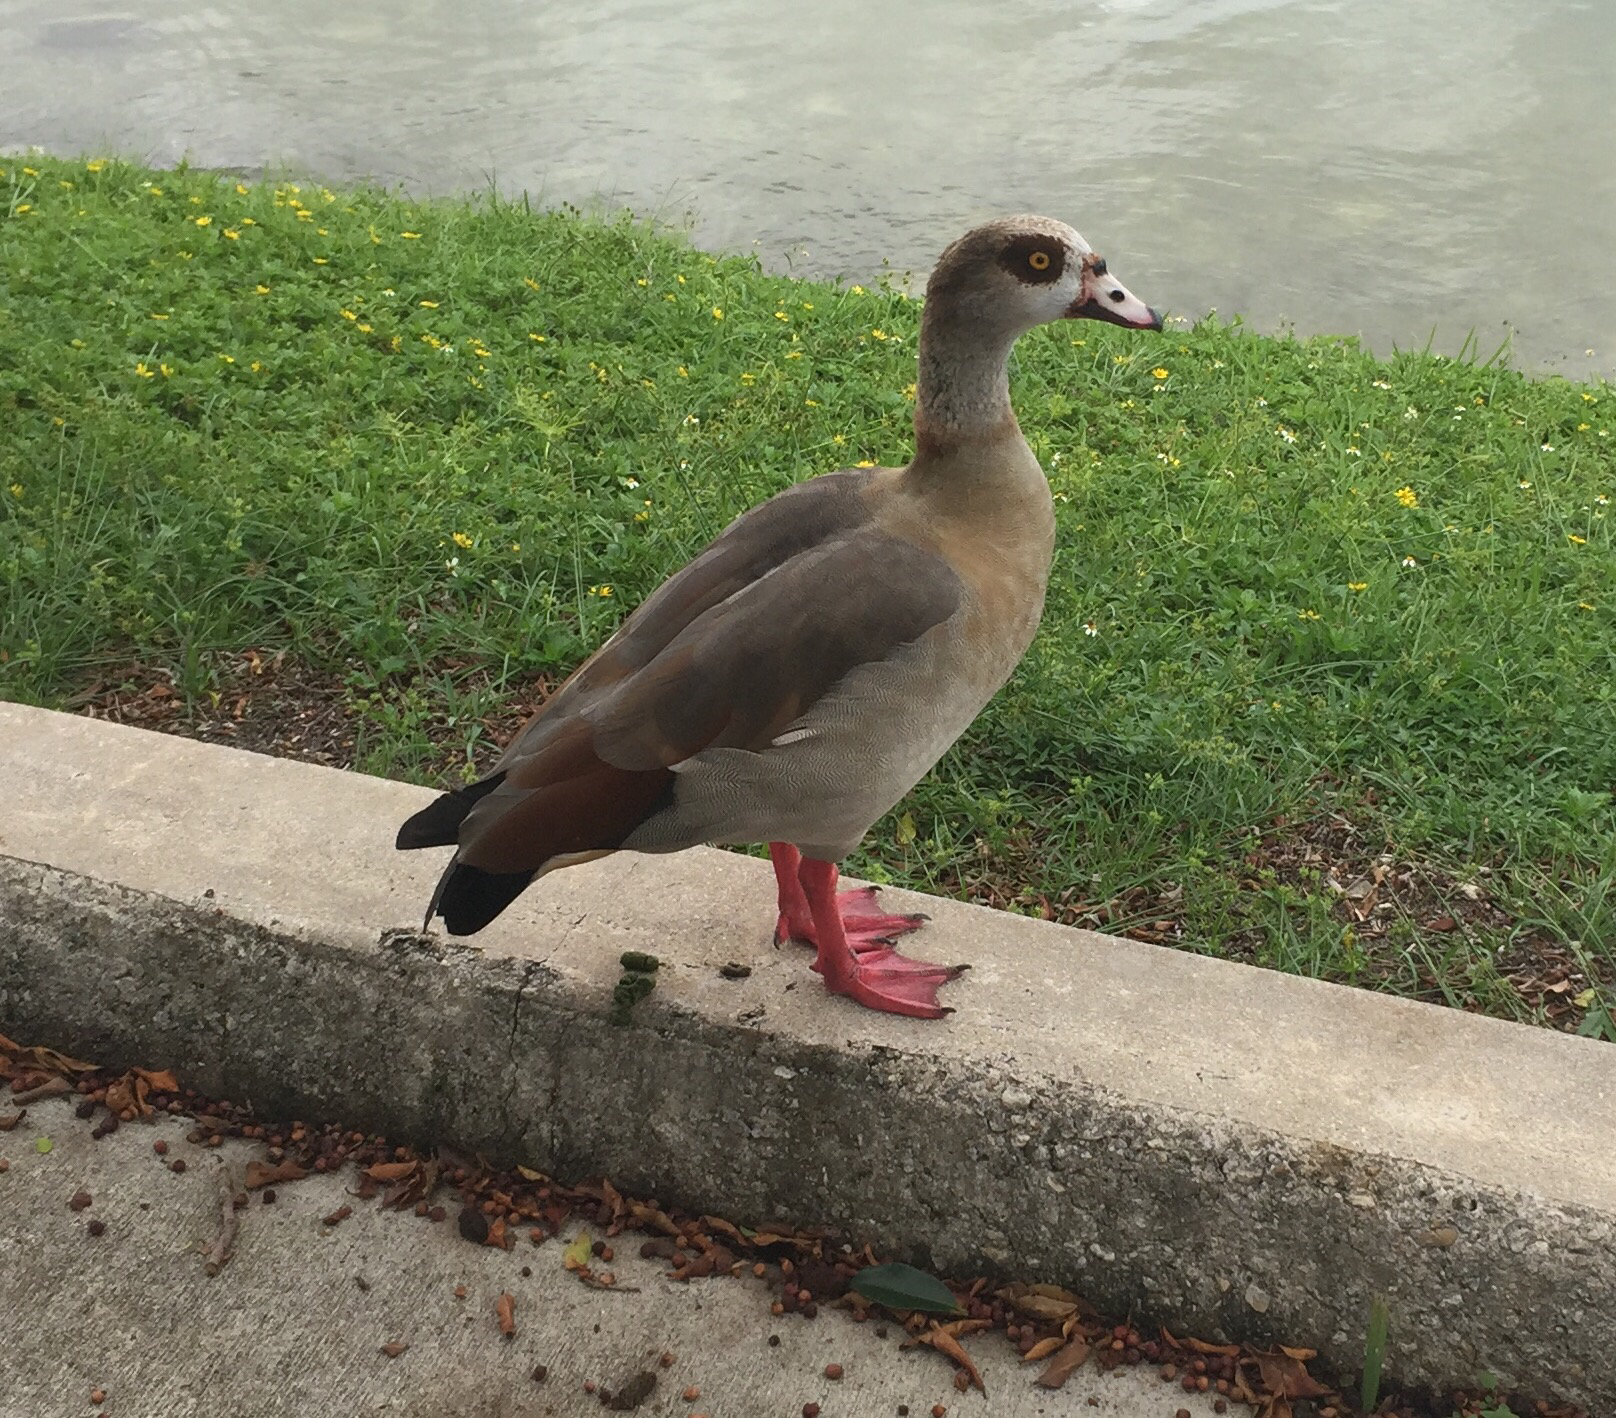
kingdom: Animalia
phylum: Chordata
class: Aves
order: Anseriformes
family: Anatidae
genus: Alopochen
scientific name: Alopochen aegyptiaca
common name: Egyptian goose
